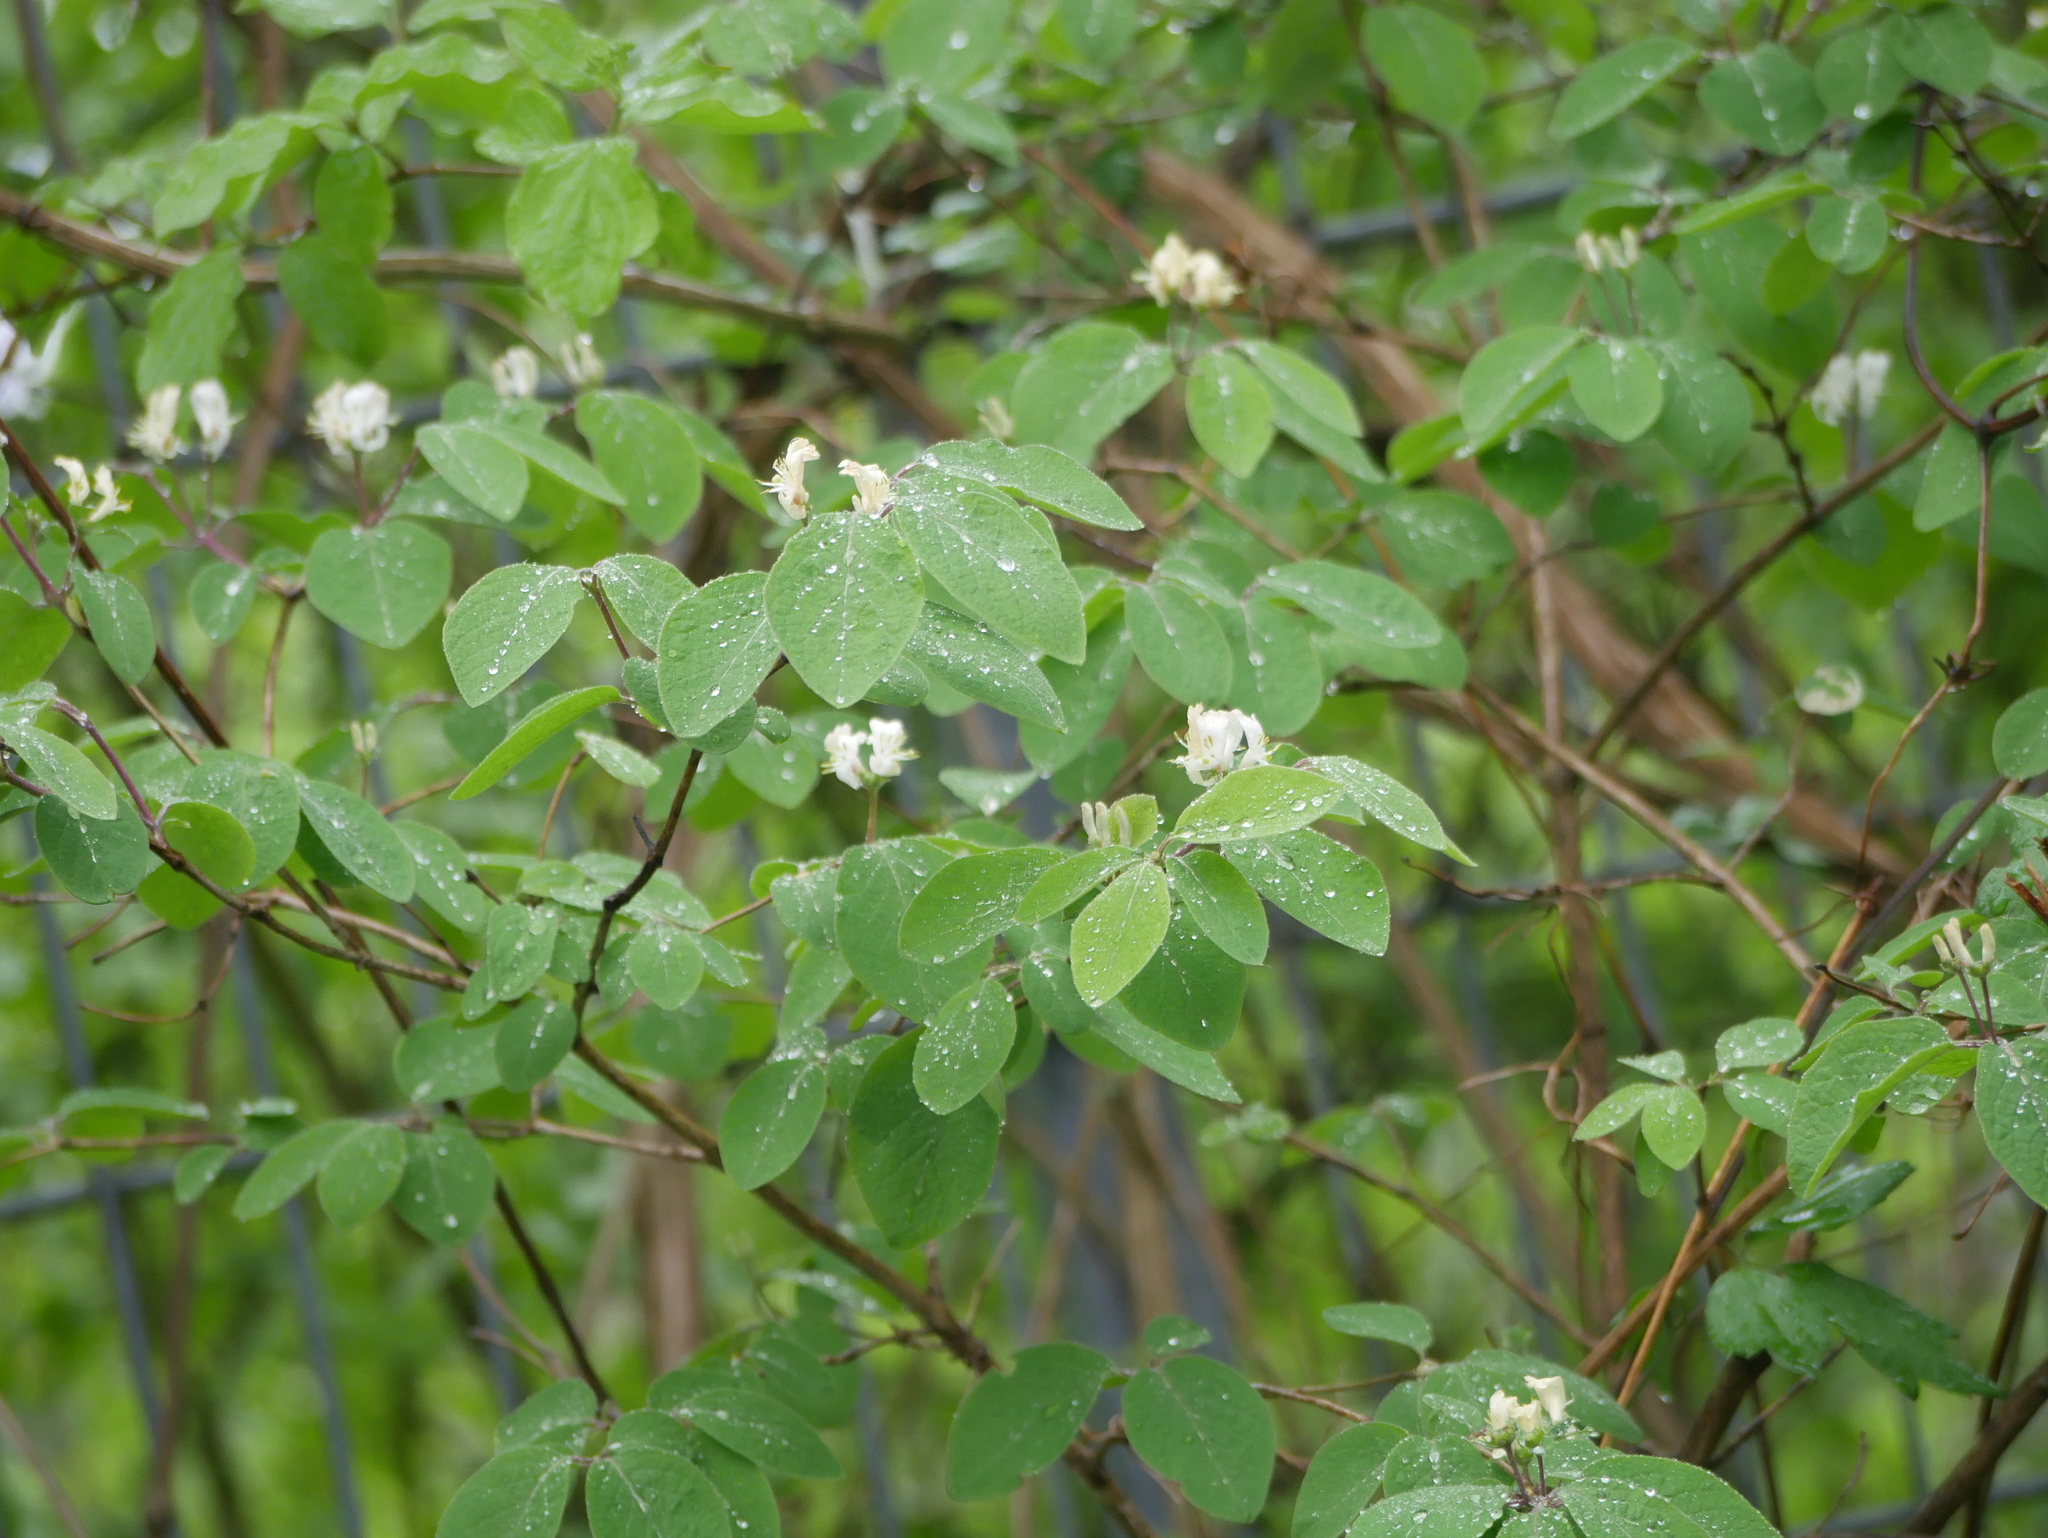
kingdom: Plantae
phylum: Tracheophyta
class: Magnoliopsida
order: Dipsacales
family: Caprifoliaceae
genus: Lonicera
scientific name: Lonicera xylosteum
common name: Fly honeysuckle
